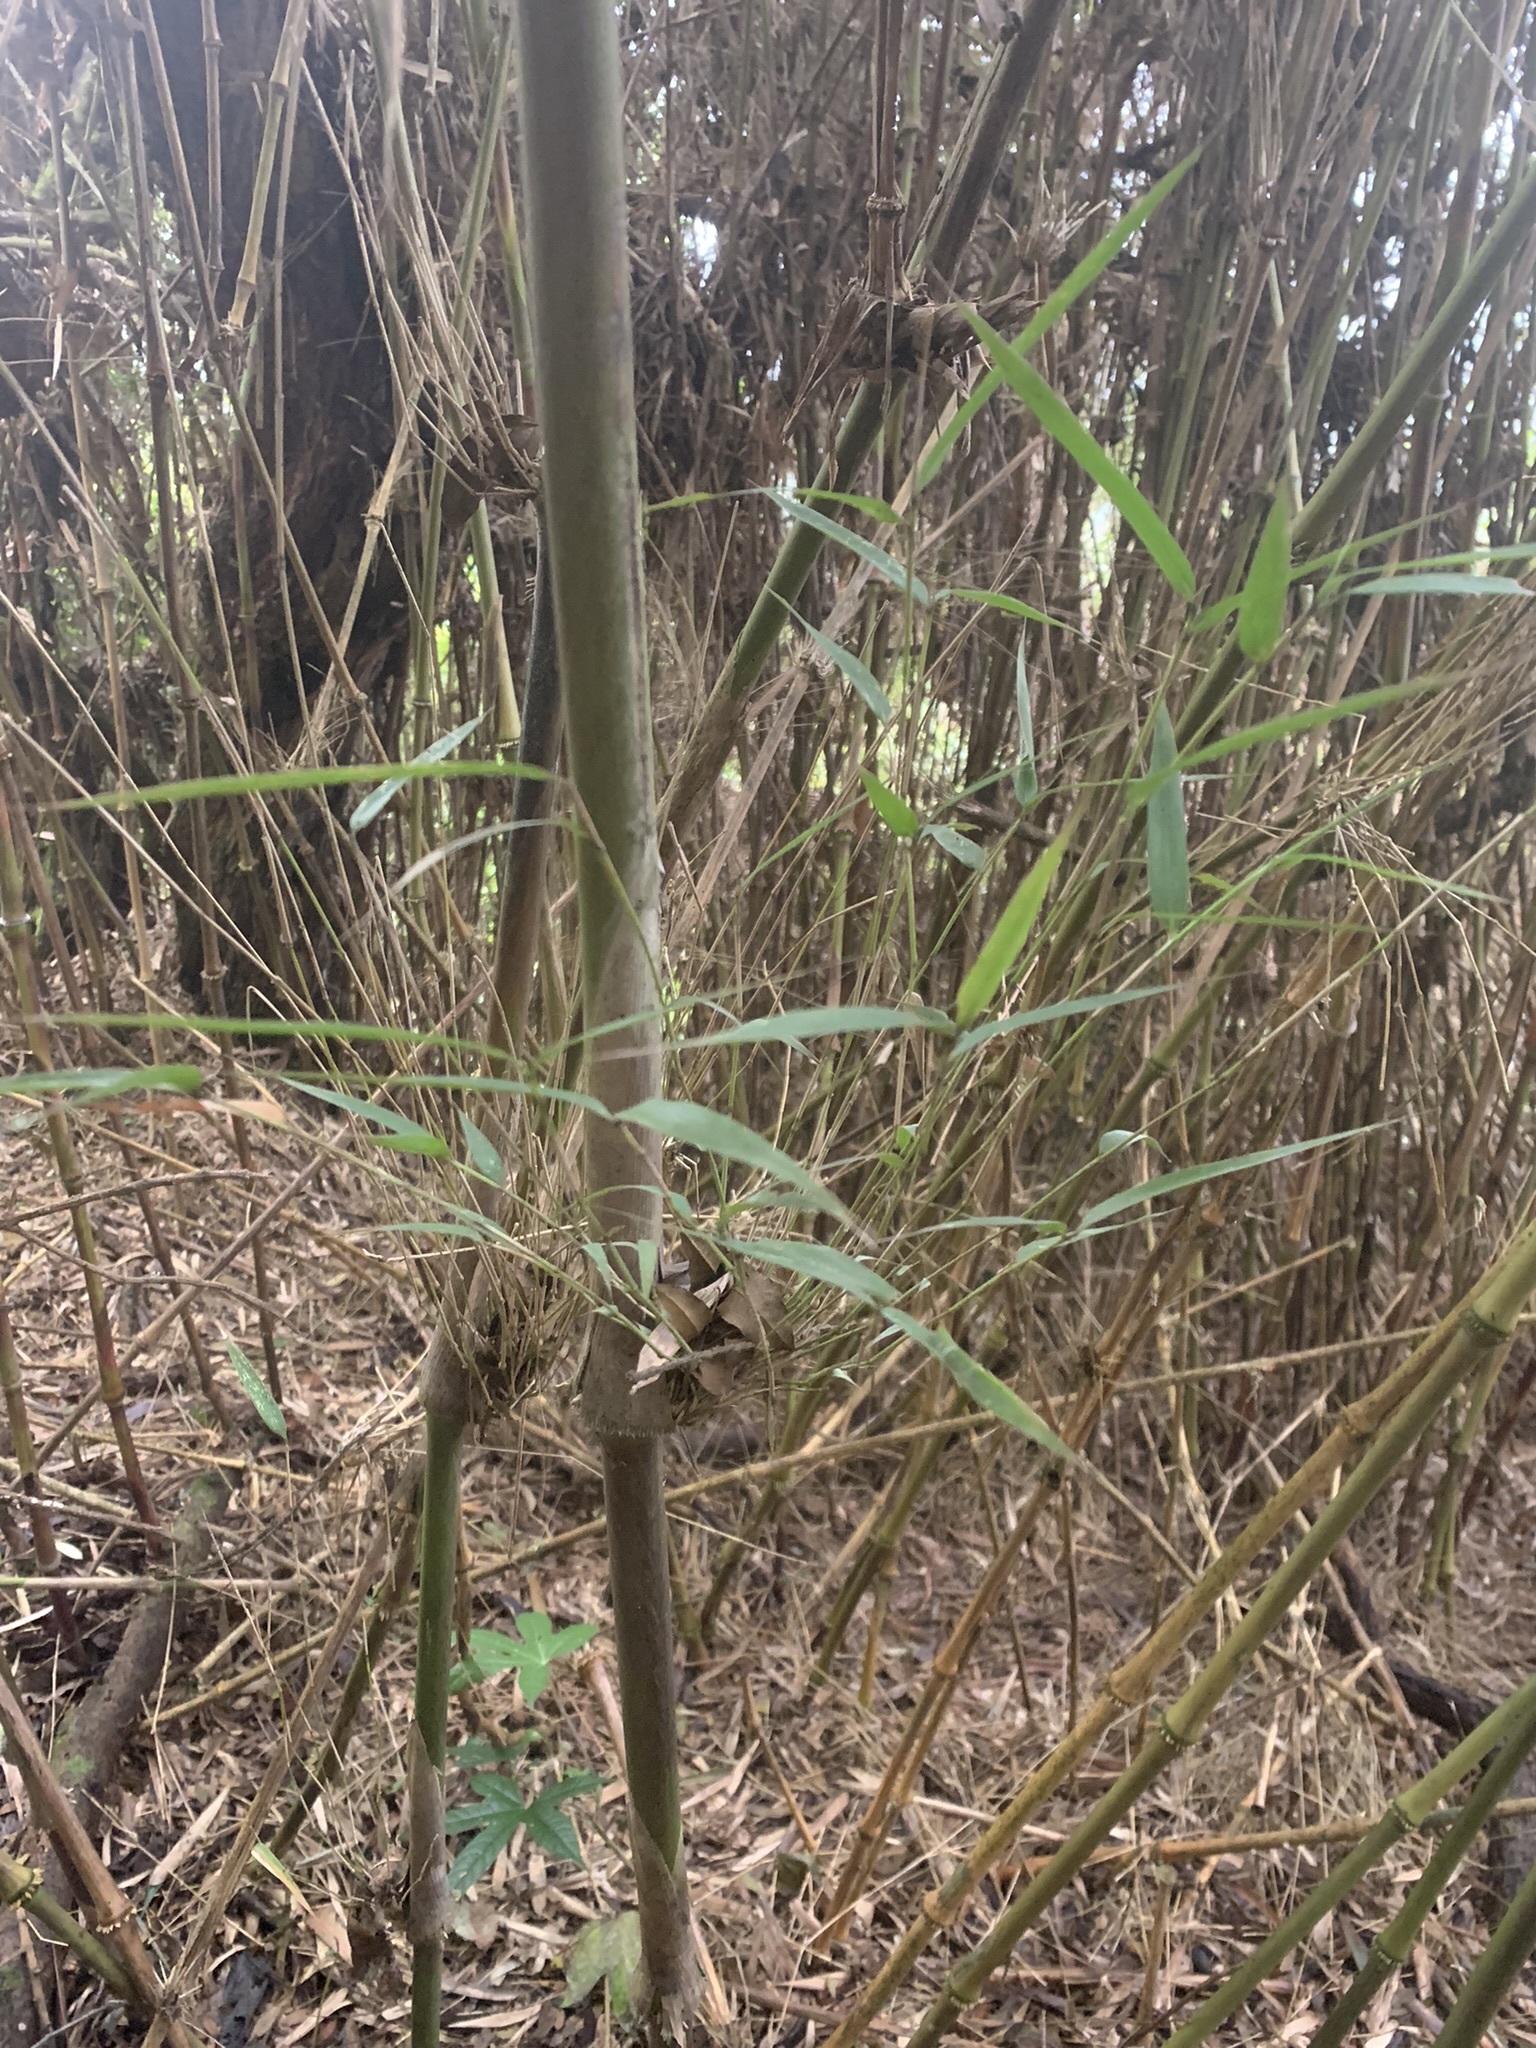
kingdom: Plantae
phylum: Tracheophyta
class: Liliopsida
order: Poales
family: Poaceae
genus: Chusquea
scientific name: Chusquea scandens
